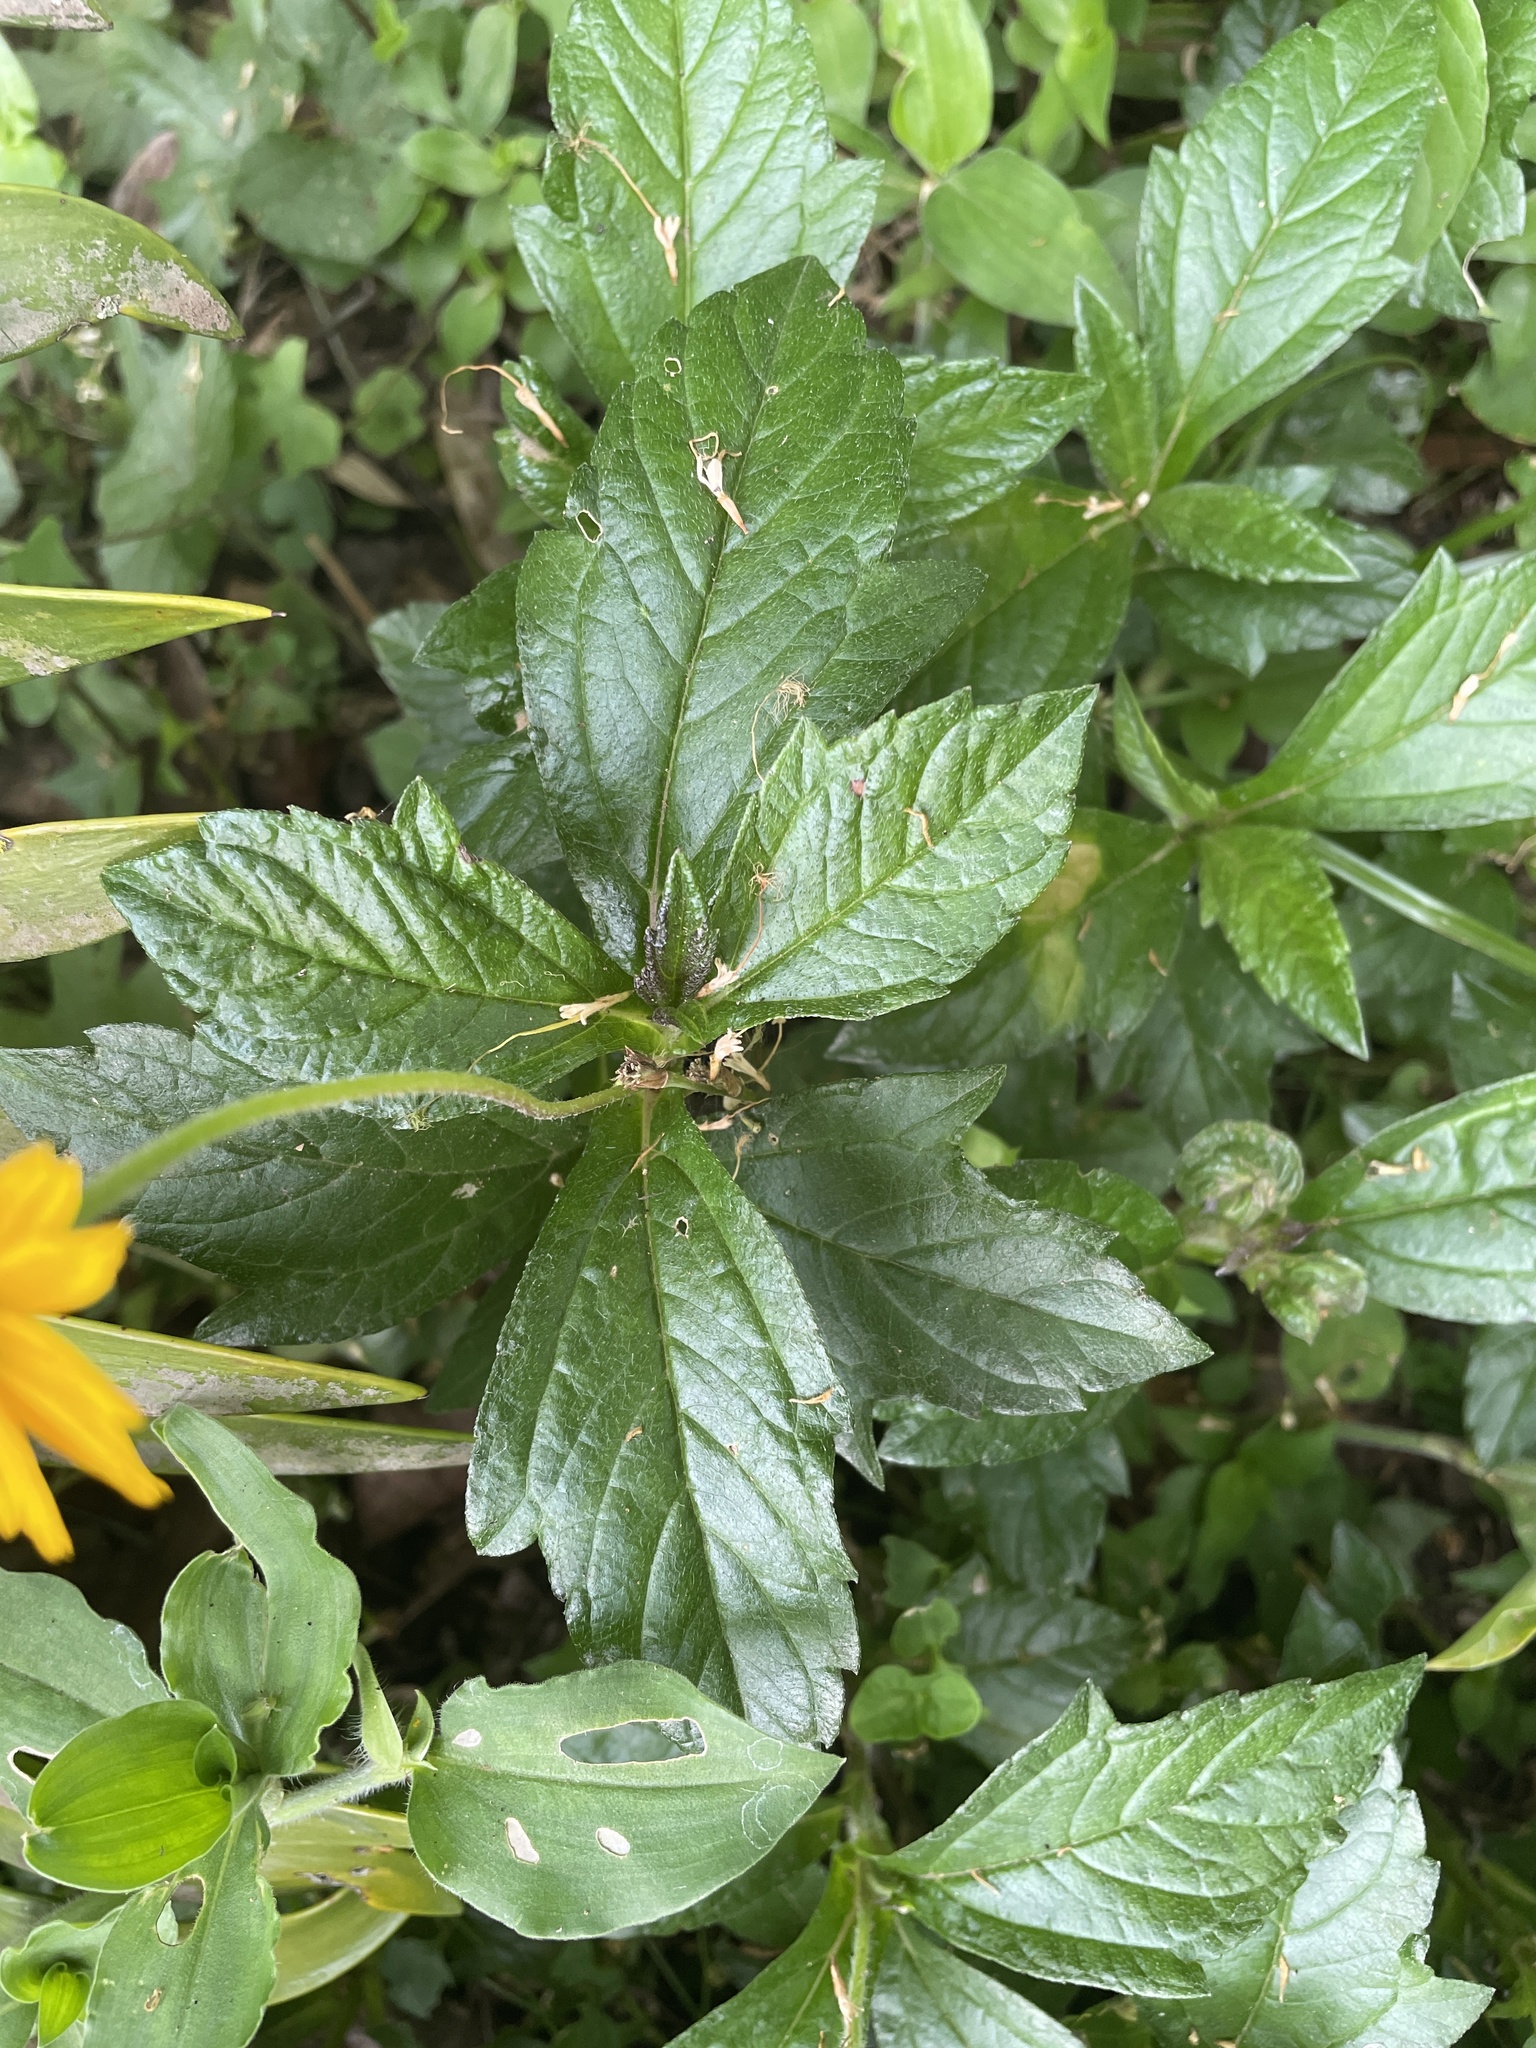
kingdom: Plantae
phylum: Tracheophyta
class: Magnoliopsida
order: Asterales
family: Asteraceae
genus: Sphagneticola
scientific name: Sphagneticola trilobata
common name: Bay biscayne creeping-oxeye
